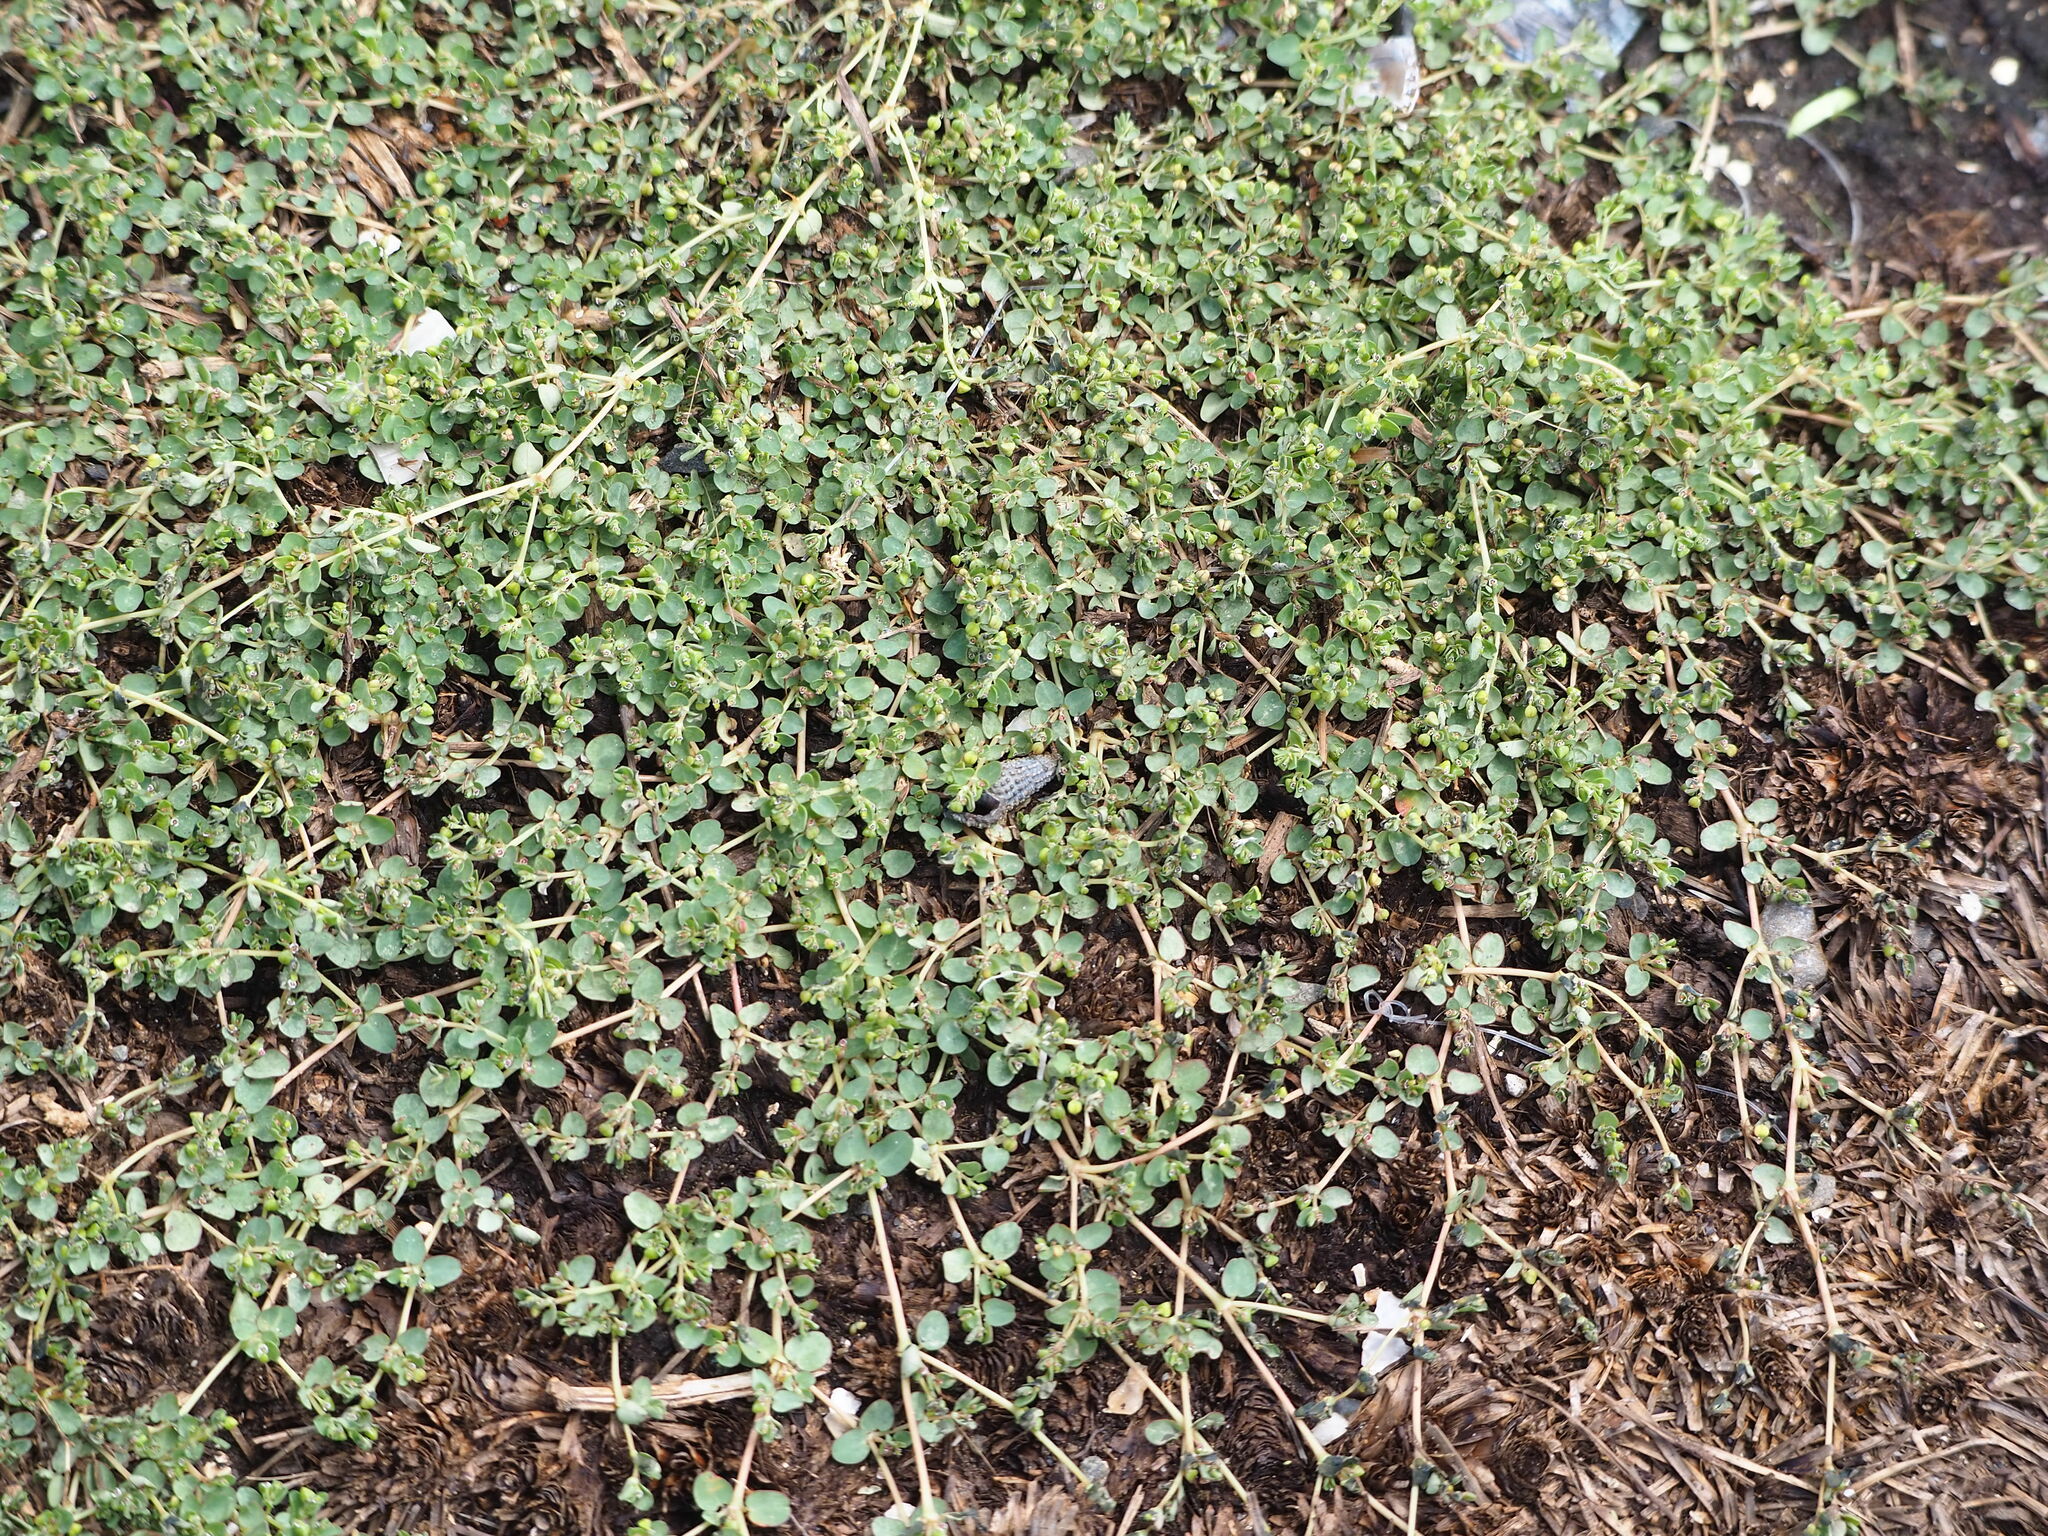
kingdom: Plantae
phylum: Tracheophyta
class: Magnoliopsida
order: Malpighiales
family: Euphorbiaceae
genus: Euphorbia
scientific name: Euphorbia serpens
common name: Matted sandmat
